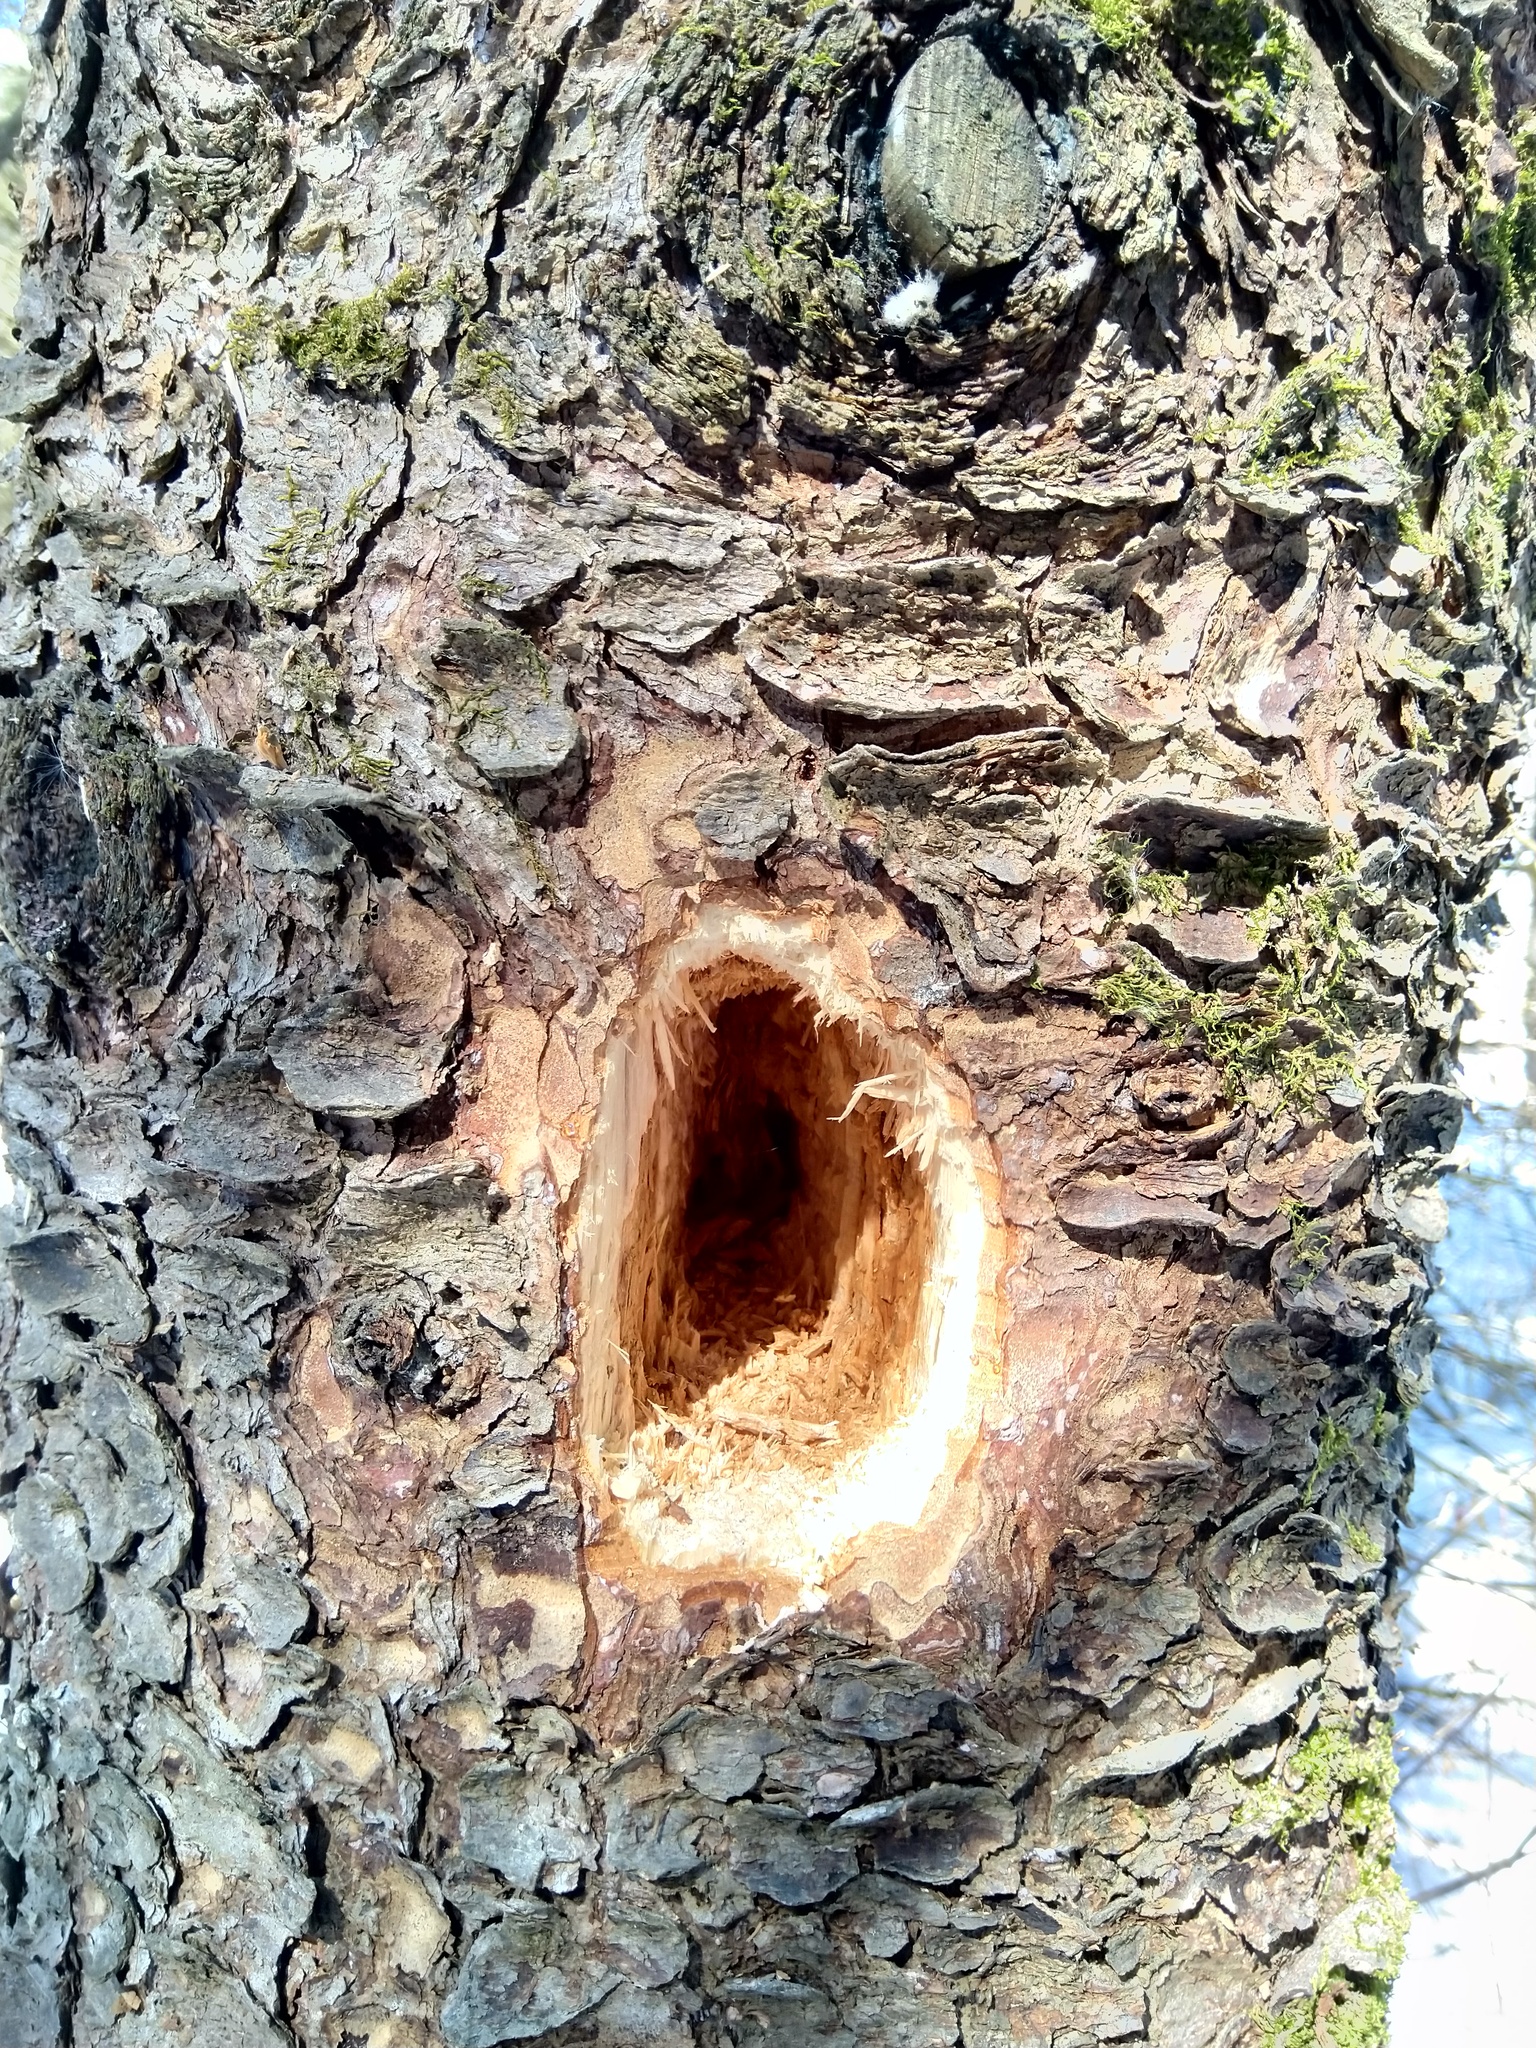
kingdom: Animalia
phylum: Chordata
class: Aves
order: Piciformes
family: Picidae
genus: Dryocopus
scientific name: Dryocopus pileatus
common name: Pileated woodpecker
